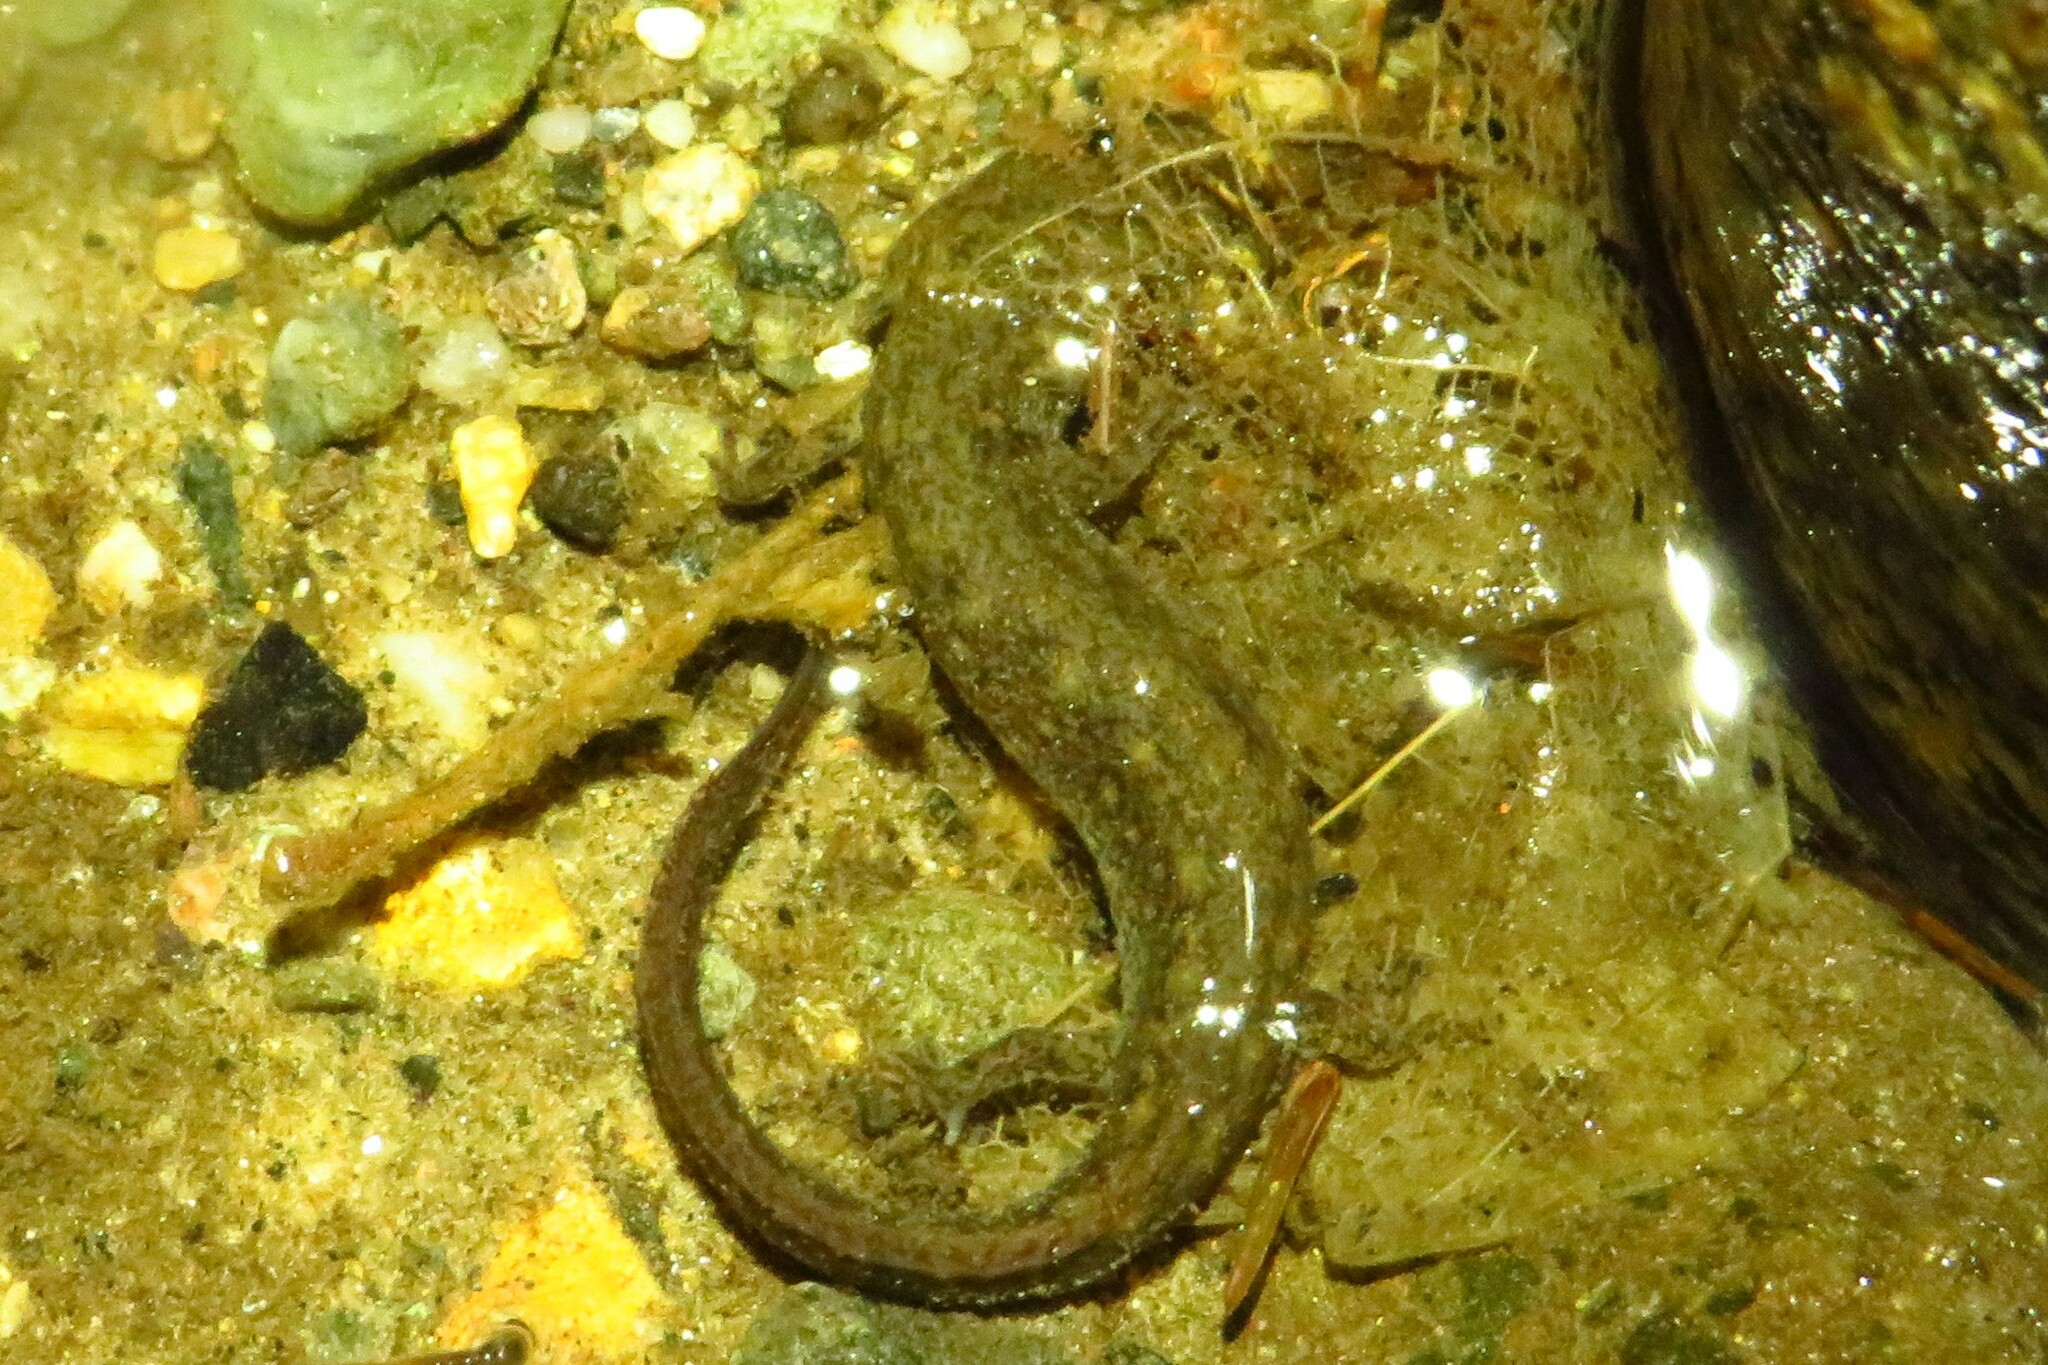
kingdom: Animalia
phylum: Chordata
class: Amphibia
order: Caudata
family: Plethodontidae
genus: Eurycea
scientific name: Eurycea bislineata
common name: Northern two-lined salamander
